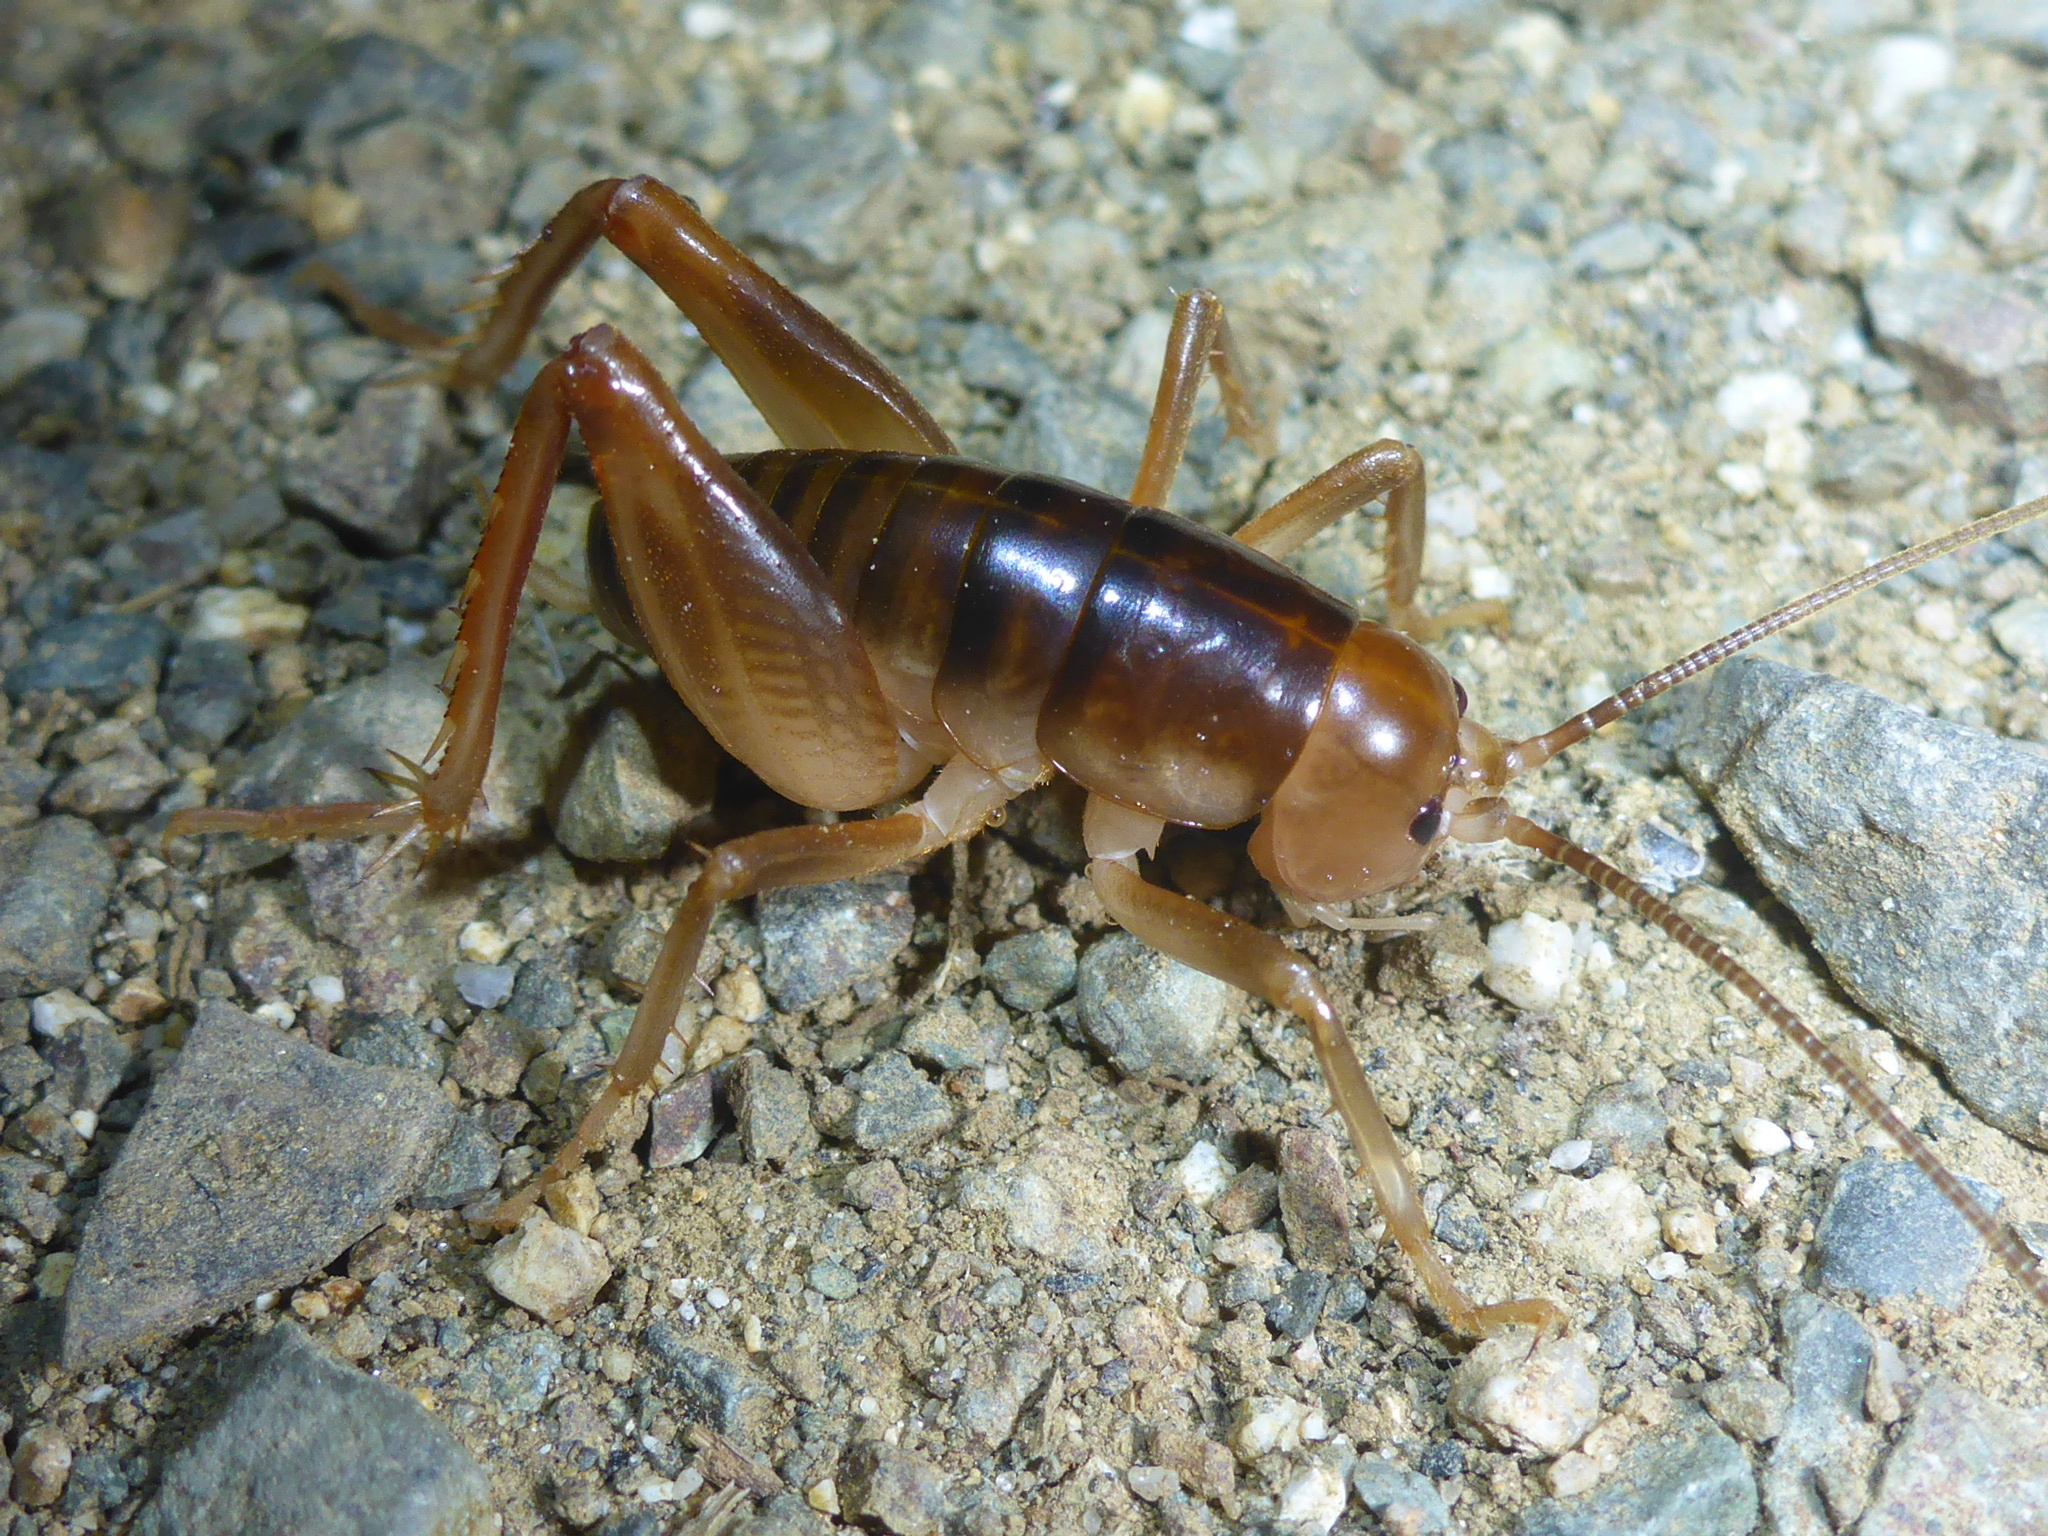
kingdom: Animalia
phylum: Arthropoda
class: Insecta
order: Orthoptera
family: Rhaphidophoridae
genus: Ceuthophilus
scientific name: Ceuthophilus californianus
